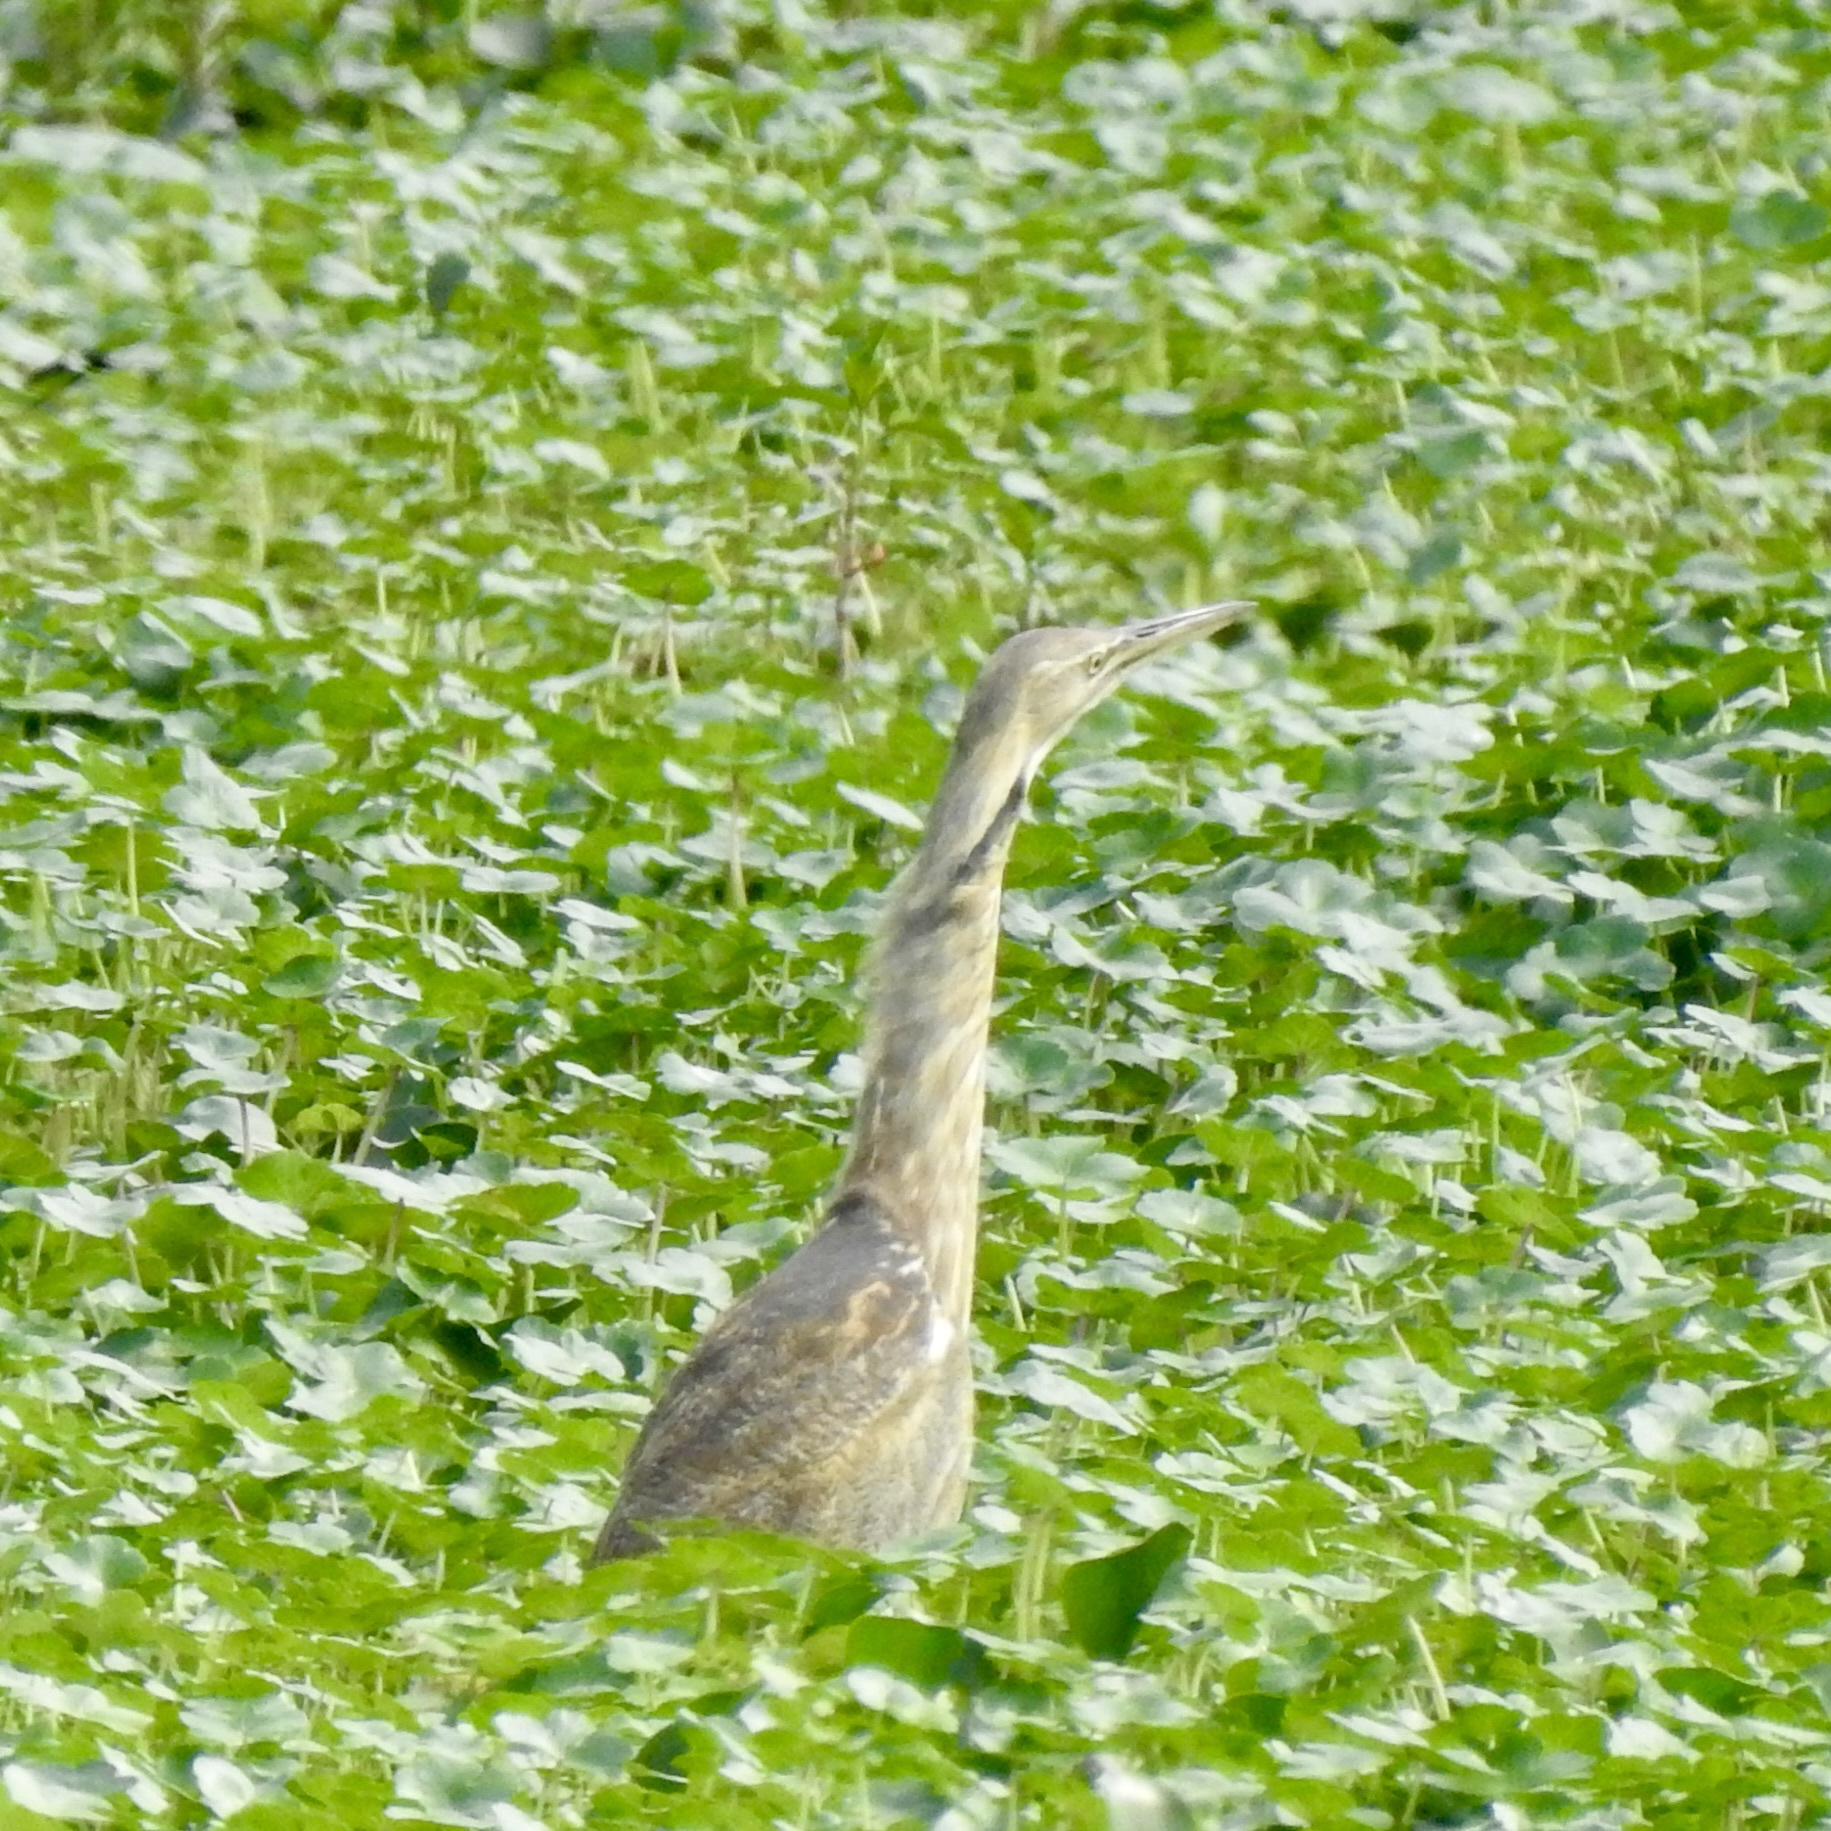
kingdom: Animalia
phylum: Chordata
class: Aves
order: Pelecaniformes
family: Ardeidae
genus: Botaurus
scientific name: Botaurus lentiginosus
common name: American bittern
